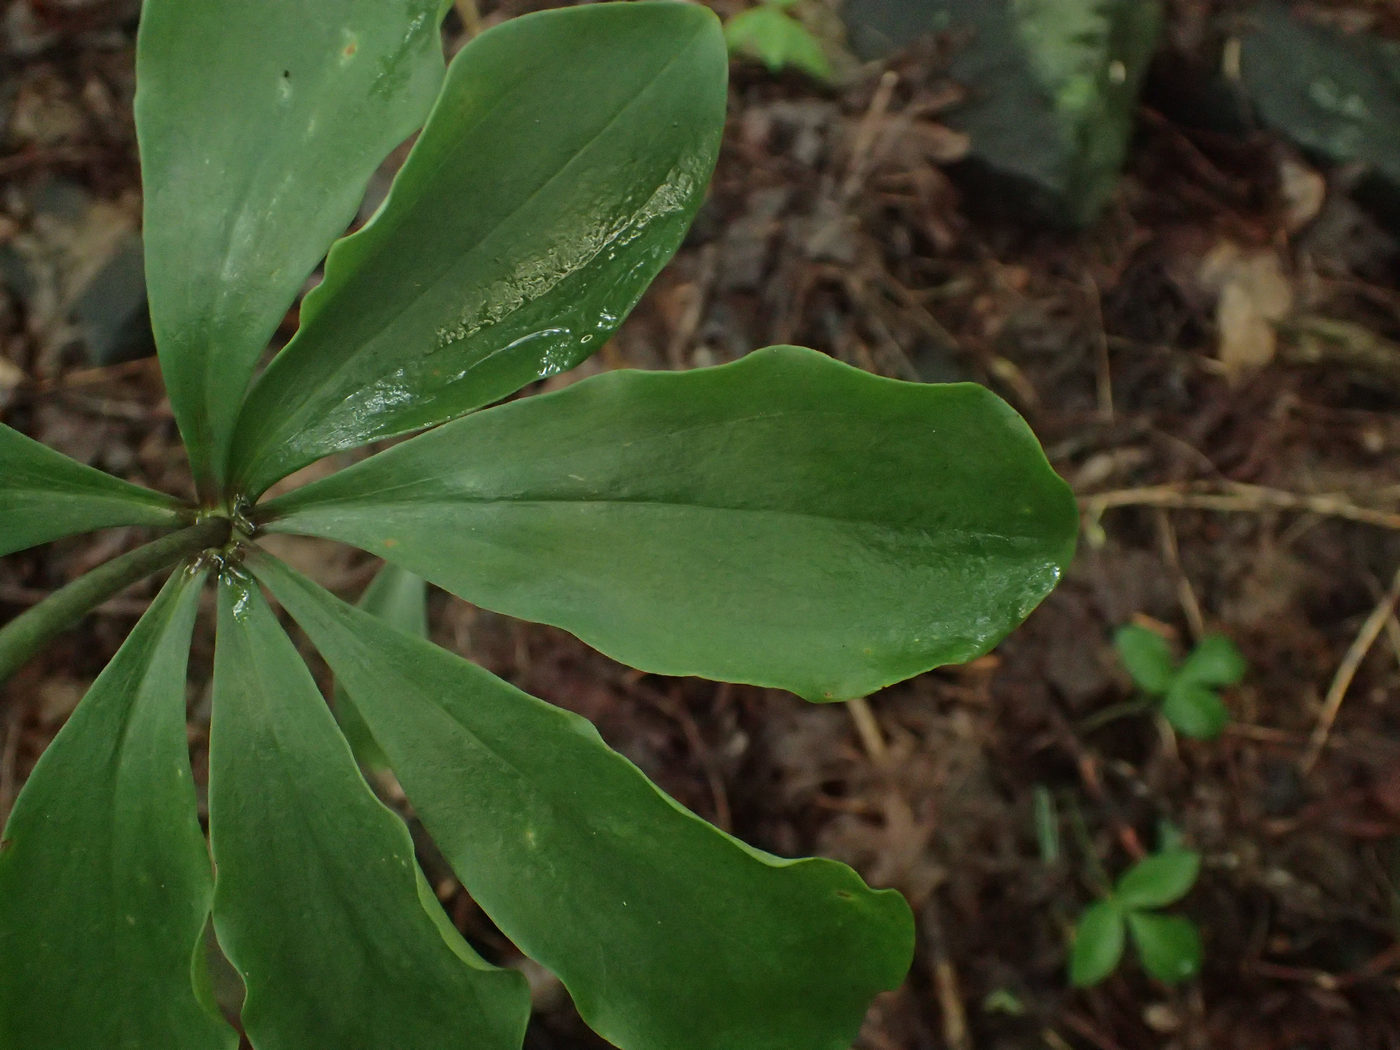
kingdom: Plantae
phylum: Tracheophyta
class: Liliopsida
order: Liliales
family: Liliaceae
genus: Lilium
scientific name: Lilium michauxii
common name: Carolina lily
